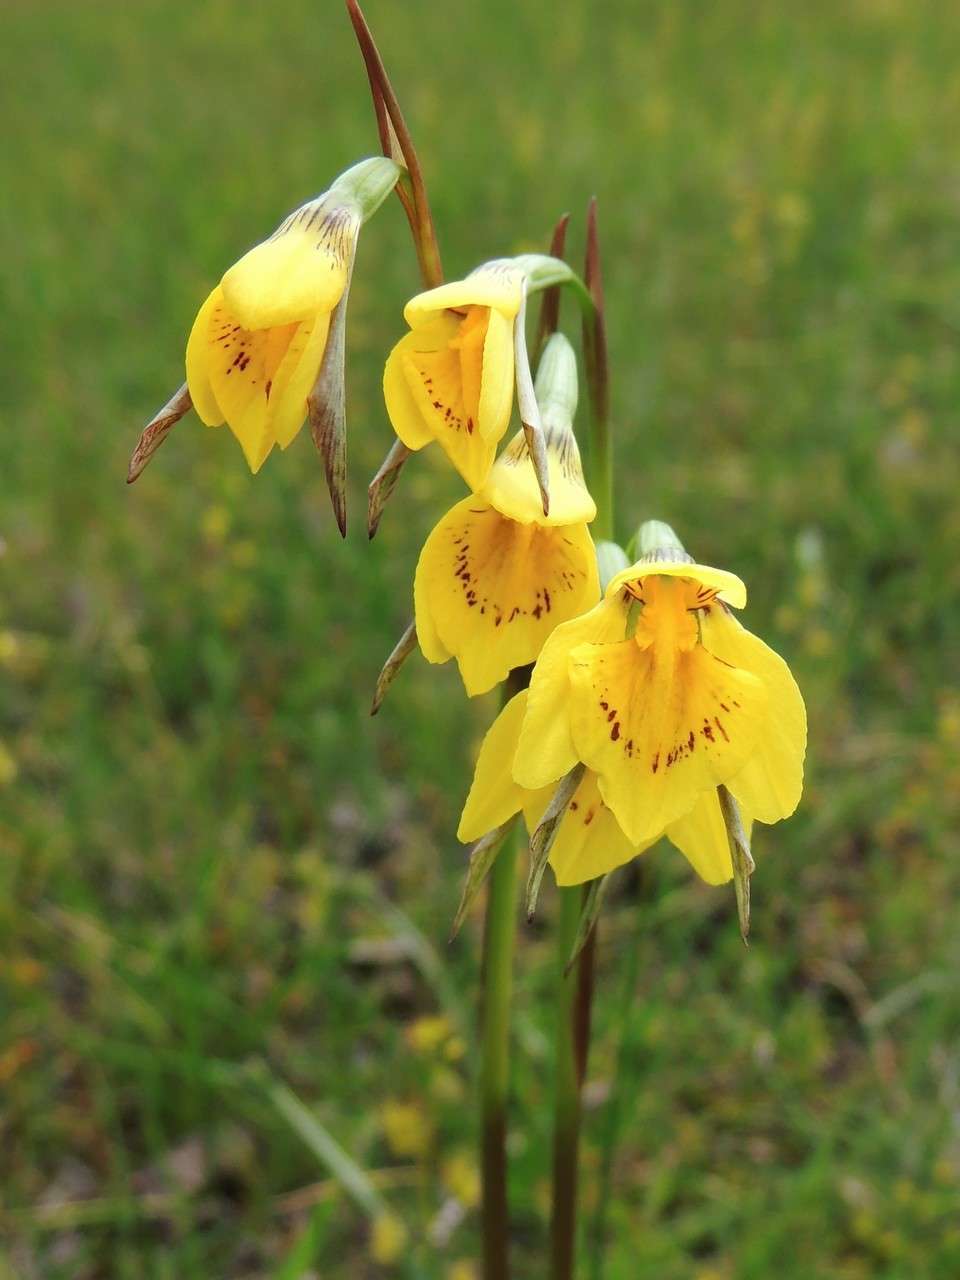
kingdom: Plantae
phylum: Tracheophyta
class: Liliopsida
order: Asparagales
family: Orchidaceae
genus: Diuris
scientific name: Diuris chryseopsis
